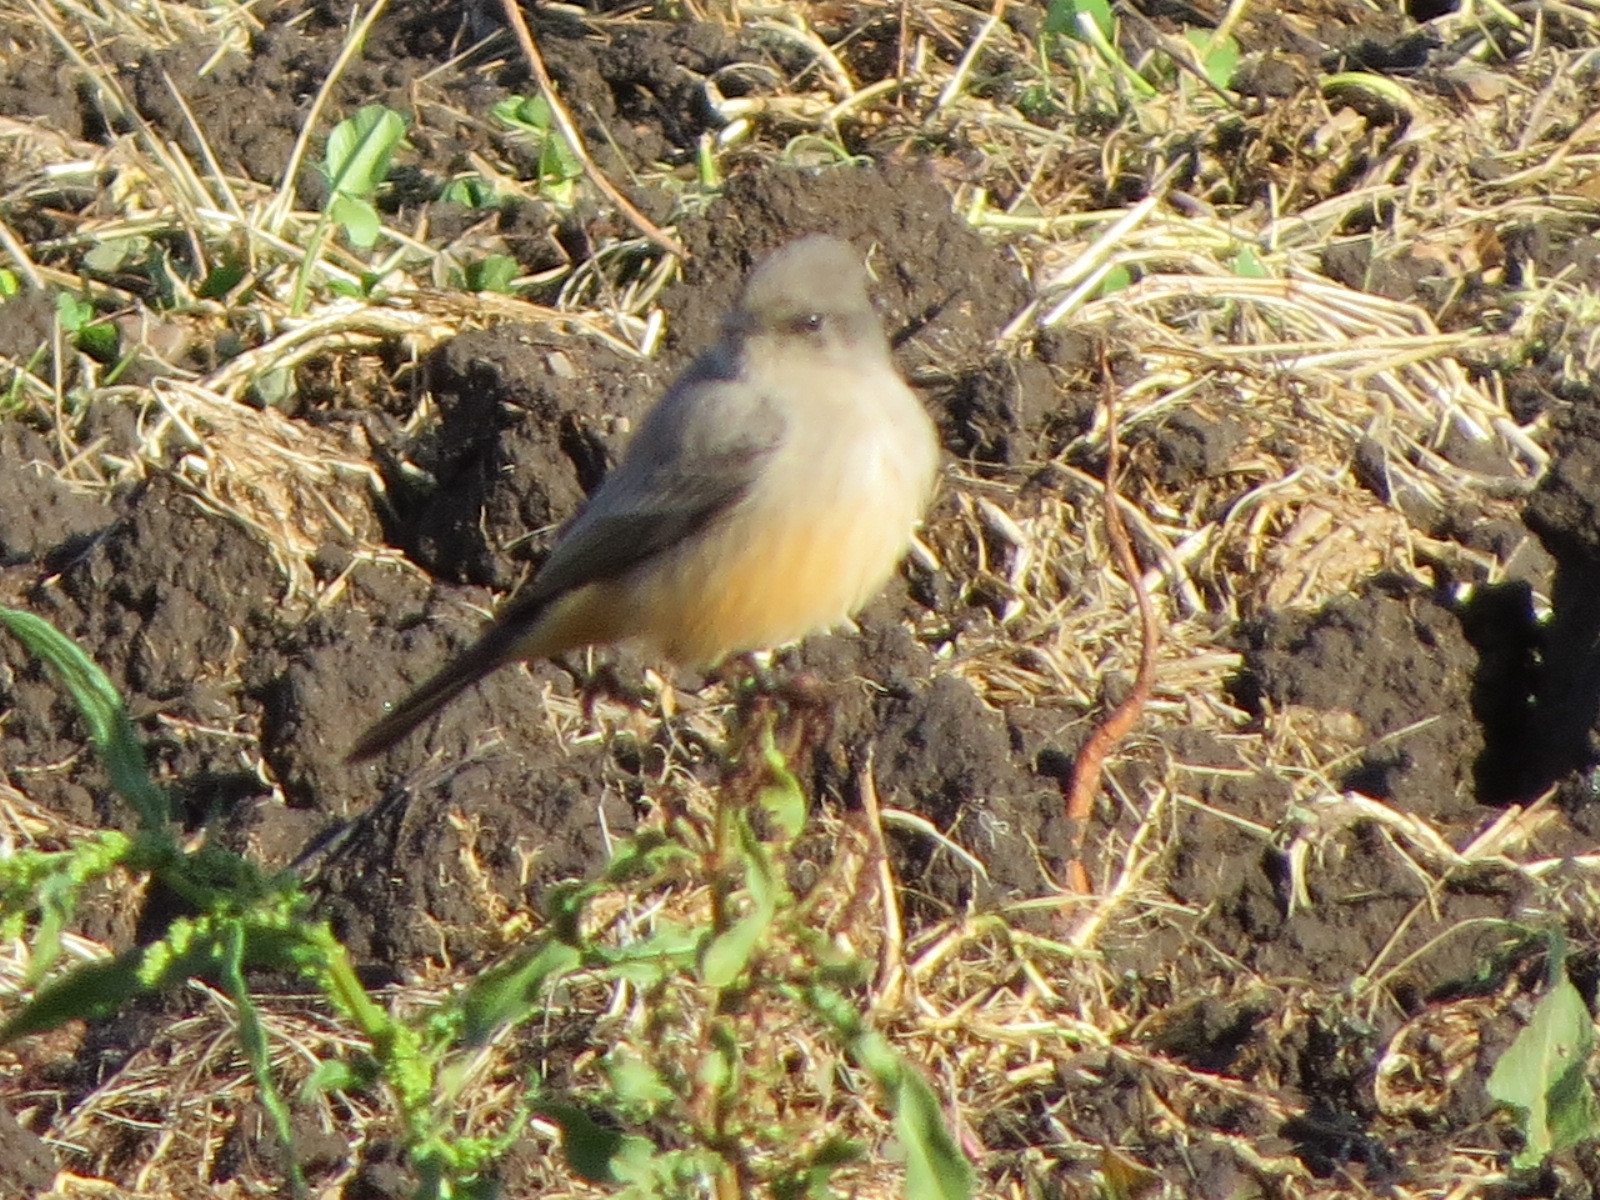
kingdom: Animalia
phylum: Chordata
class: Aves
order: Passeriformes
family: Tyrannidae
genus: Sayornis
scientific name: Sayornis saya
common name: Say's phoebe
